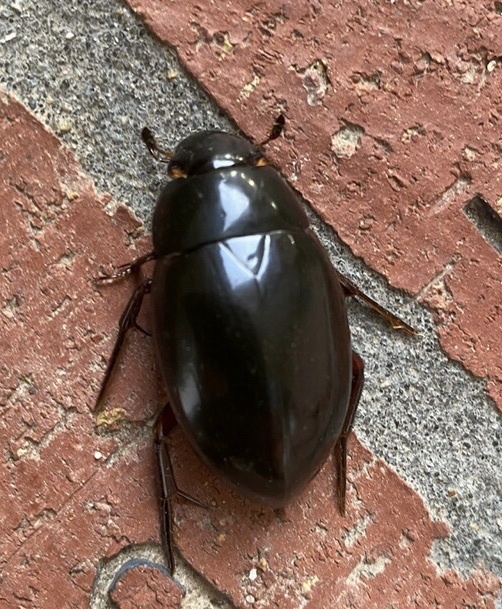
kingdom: Animalia
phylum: Arthropoda
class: Insecta
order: Coleoptera
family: Hydrophilidae
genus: Hydrophilus
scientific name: Hydrophilus ovatus
